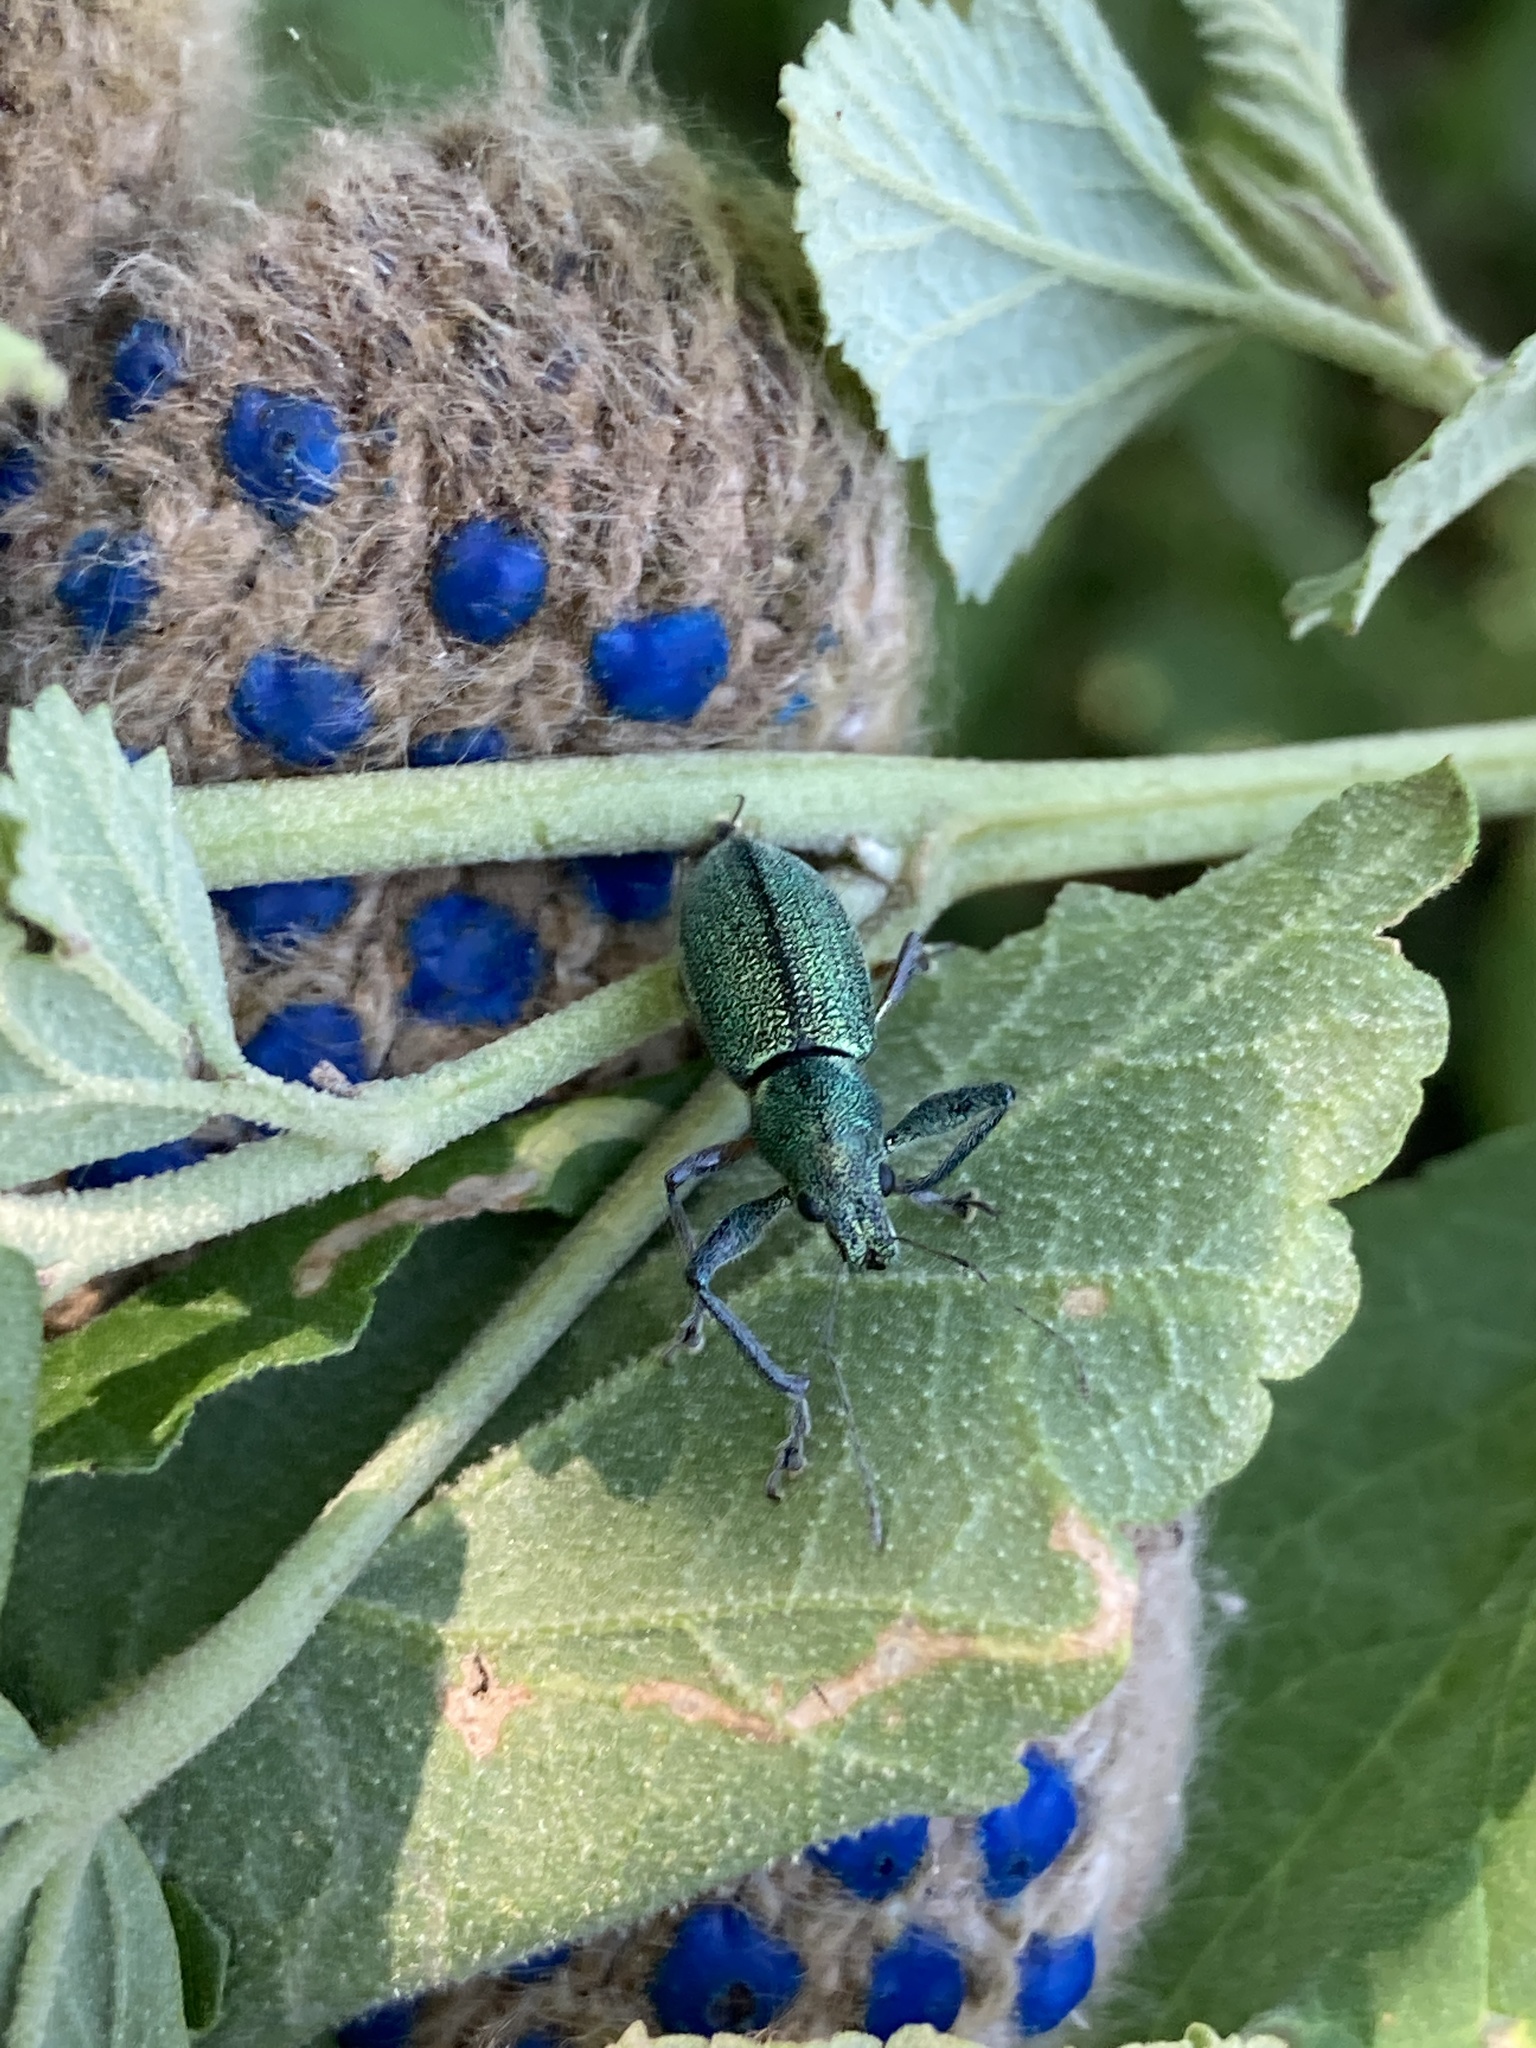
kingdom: Animalia
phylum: Arthropoda
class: Insecta
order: Coleoptera
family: Curculionidae
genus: Naupactus
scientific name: Naupactus auricinctus
